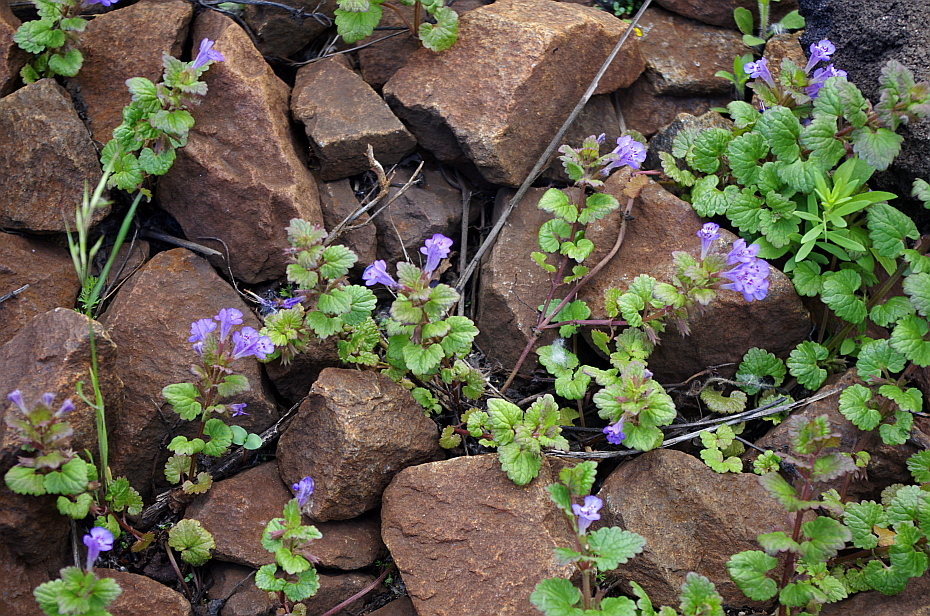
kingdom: Plantae
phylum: Tracheophyta
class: Magnoliopsida
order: Lamiales
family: Lamiaceae
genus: Glechoma
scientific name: Glechoma hederacea
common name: Ground ivy
